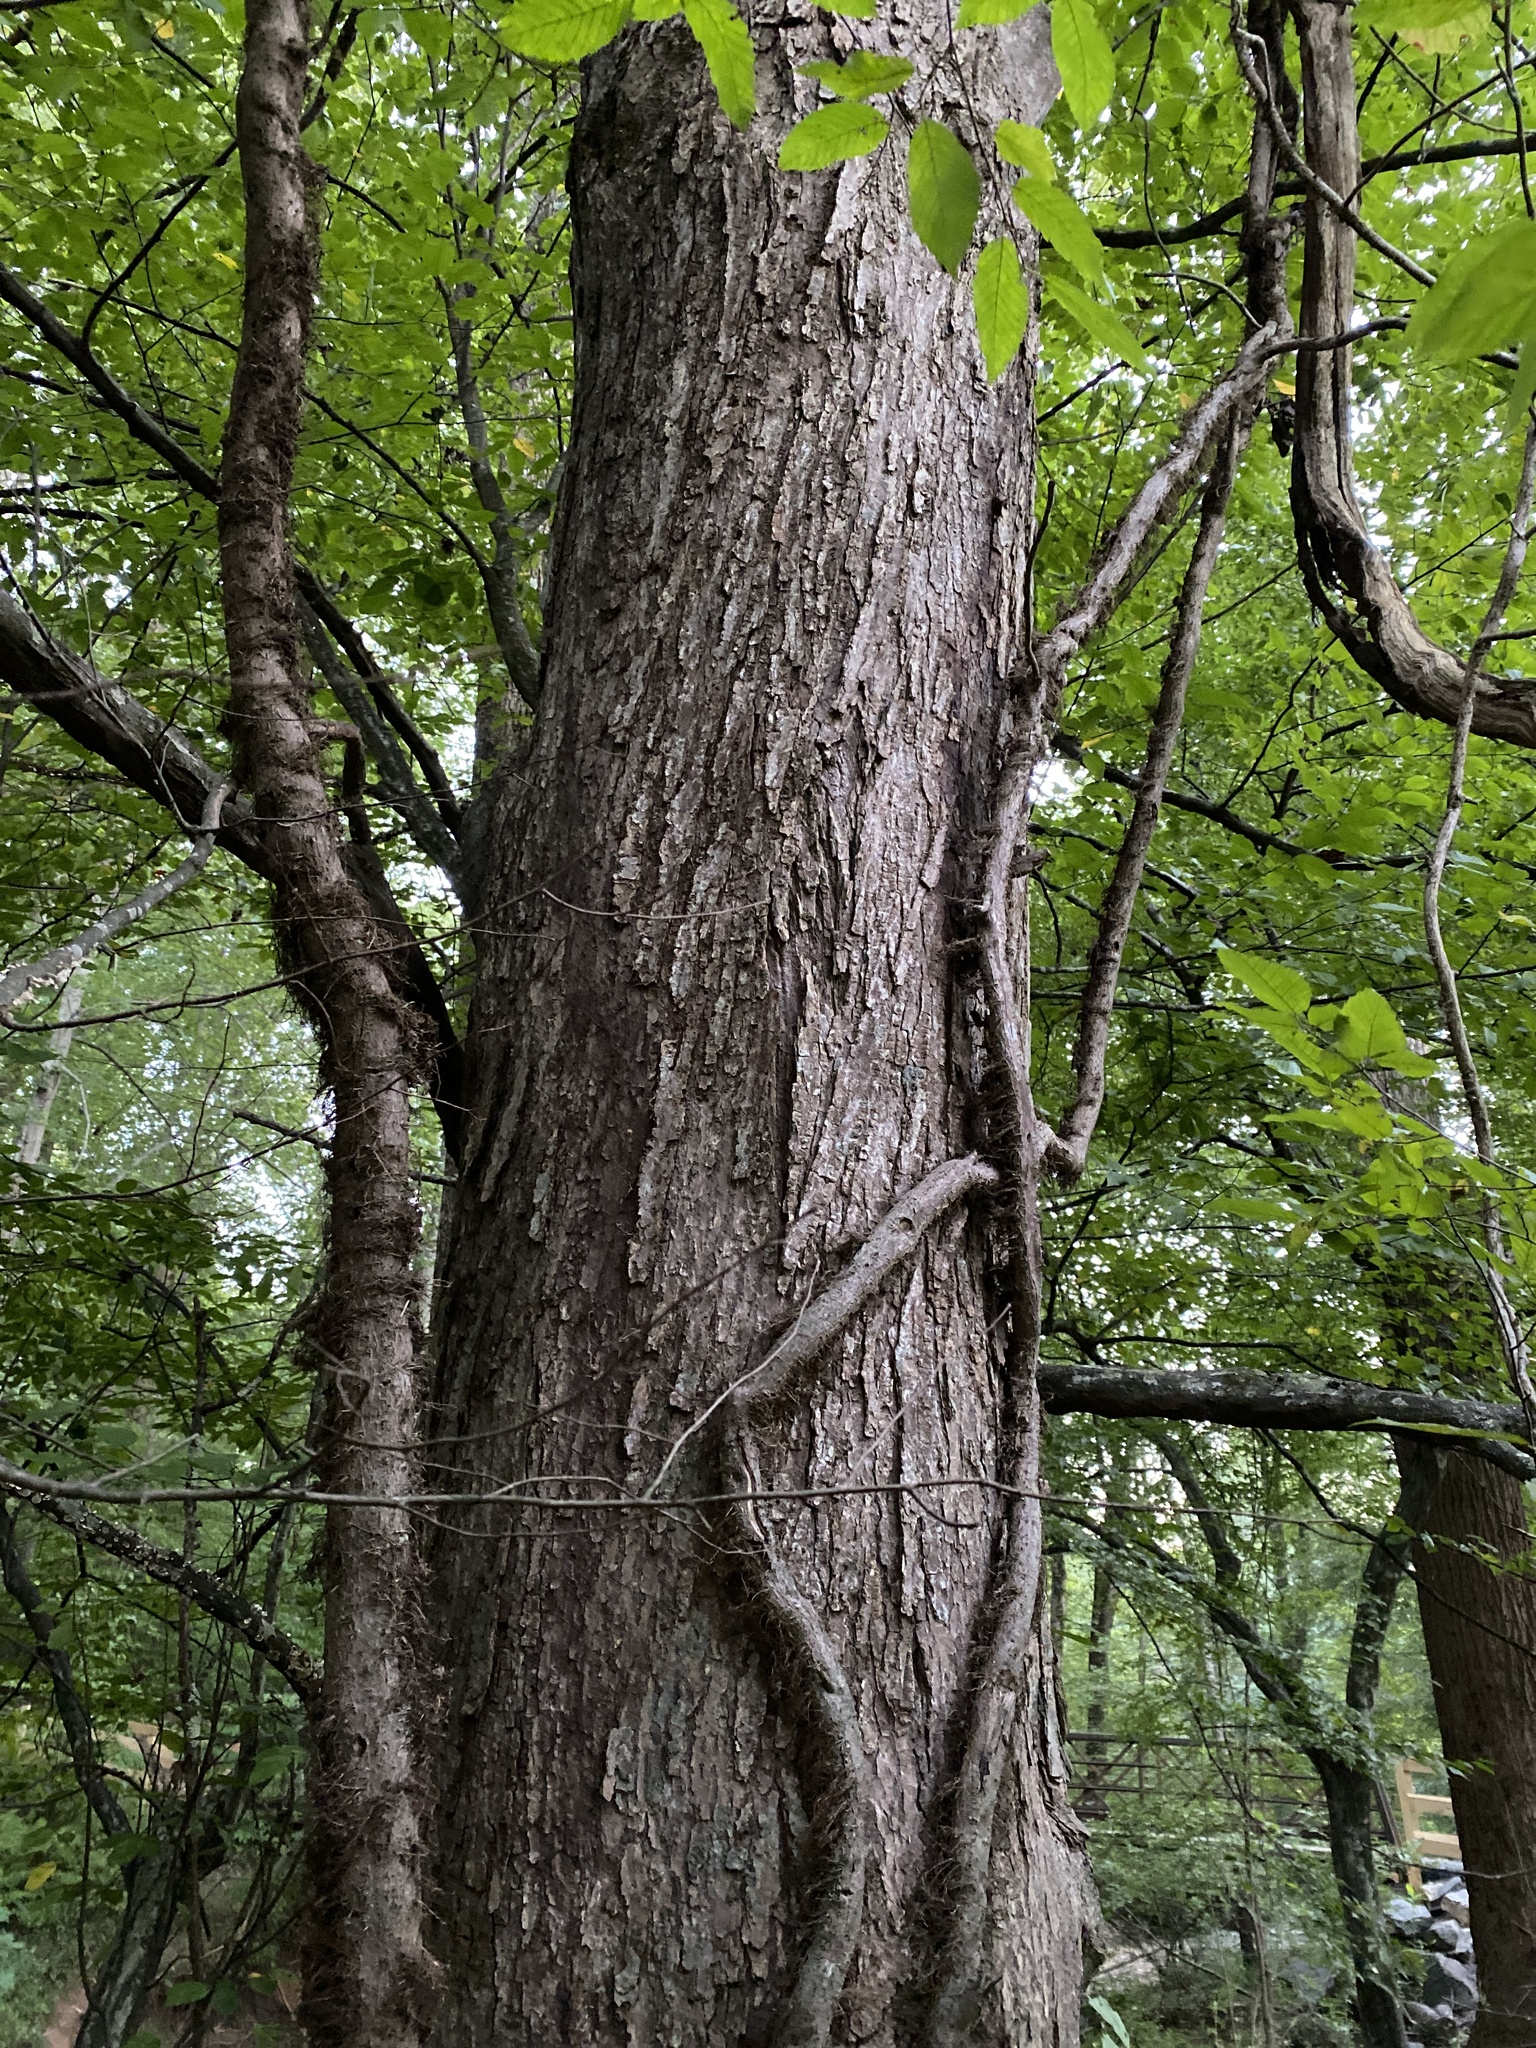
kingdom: Plantae
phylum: Tracheophyta
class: Magnoliopsida
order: Fagales
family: Betulaceae
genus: Carpinus
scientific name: Carpinus caroliniana
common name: American hornbeam
